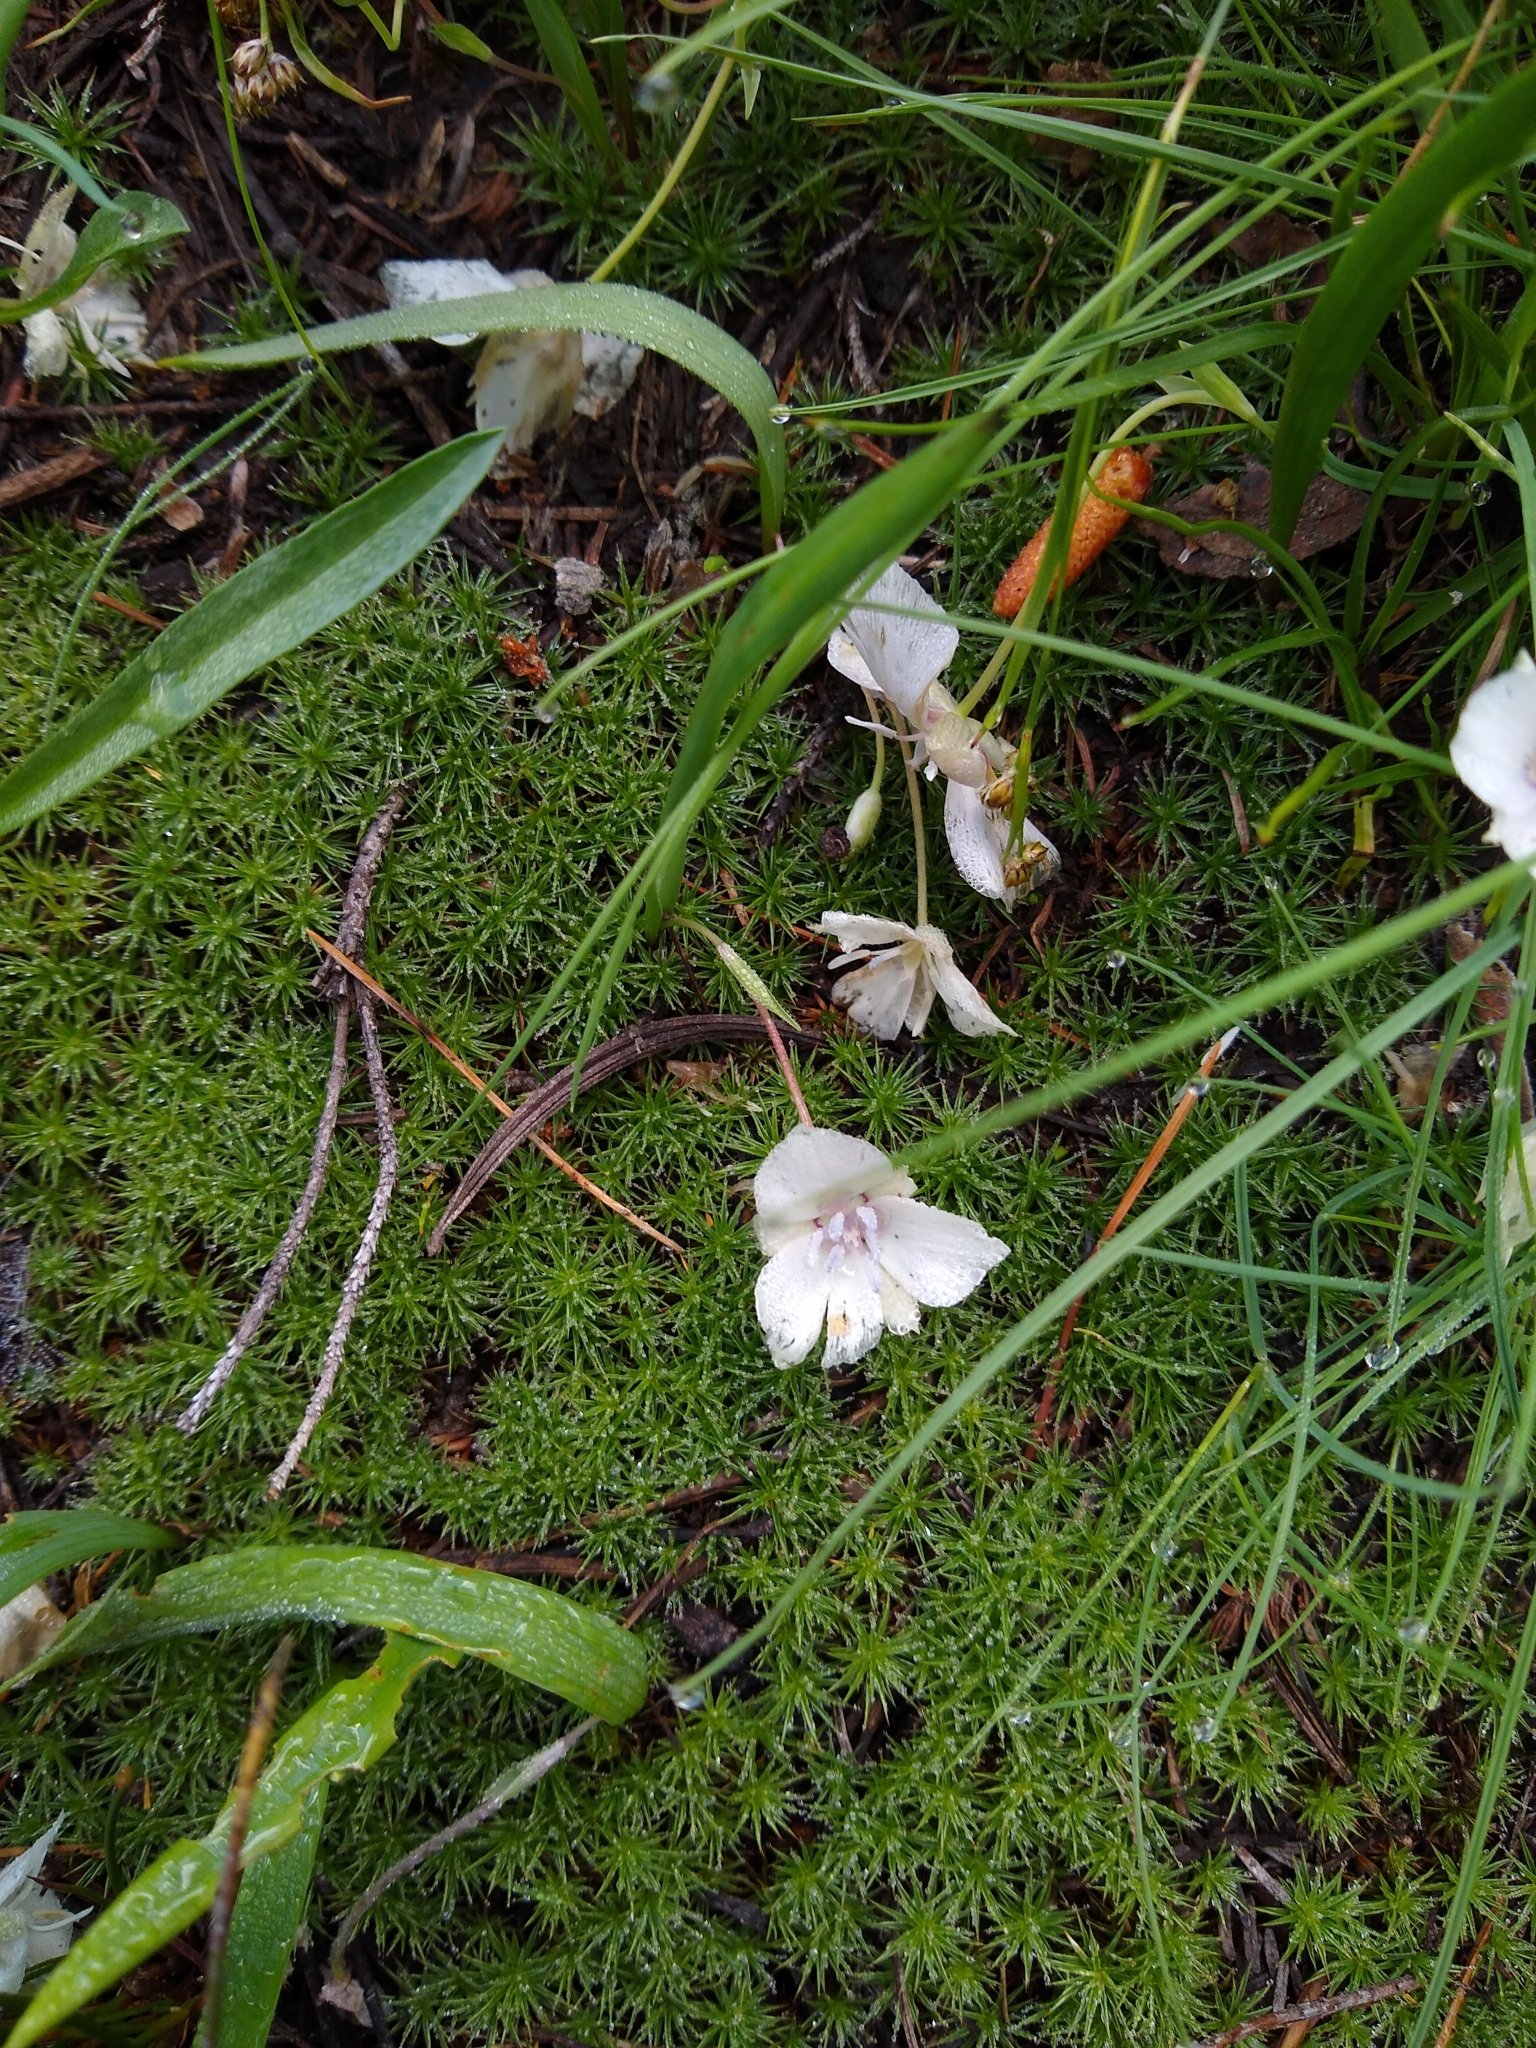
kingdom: Plantae
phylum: Tracheophyta
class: Liliopsida
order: Liliales
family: Liliaceae
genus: Calochortus
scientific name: Calochortus minimus
